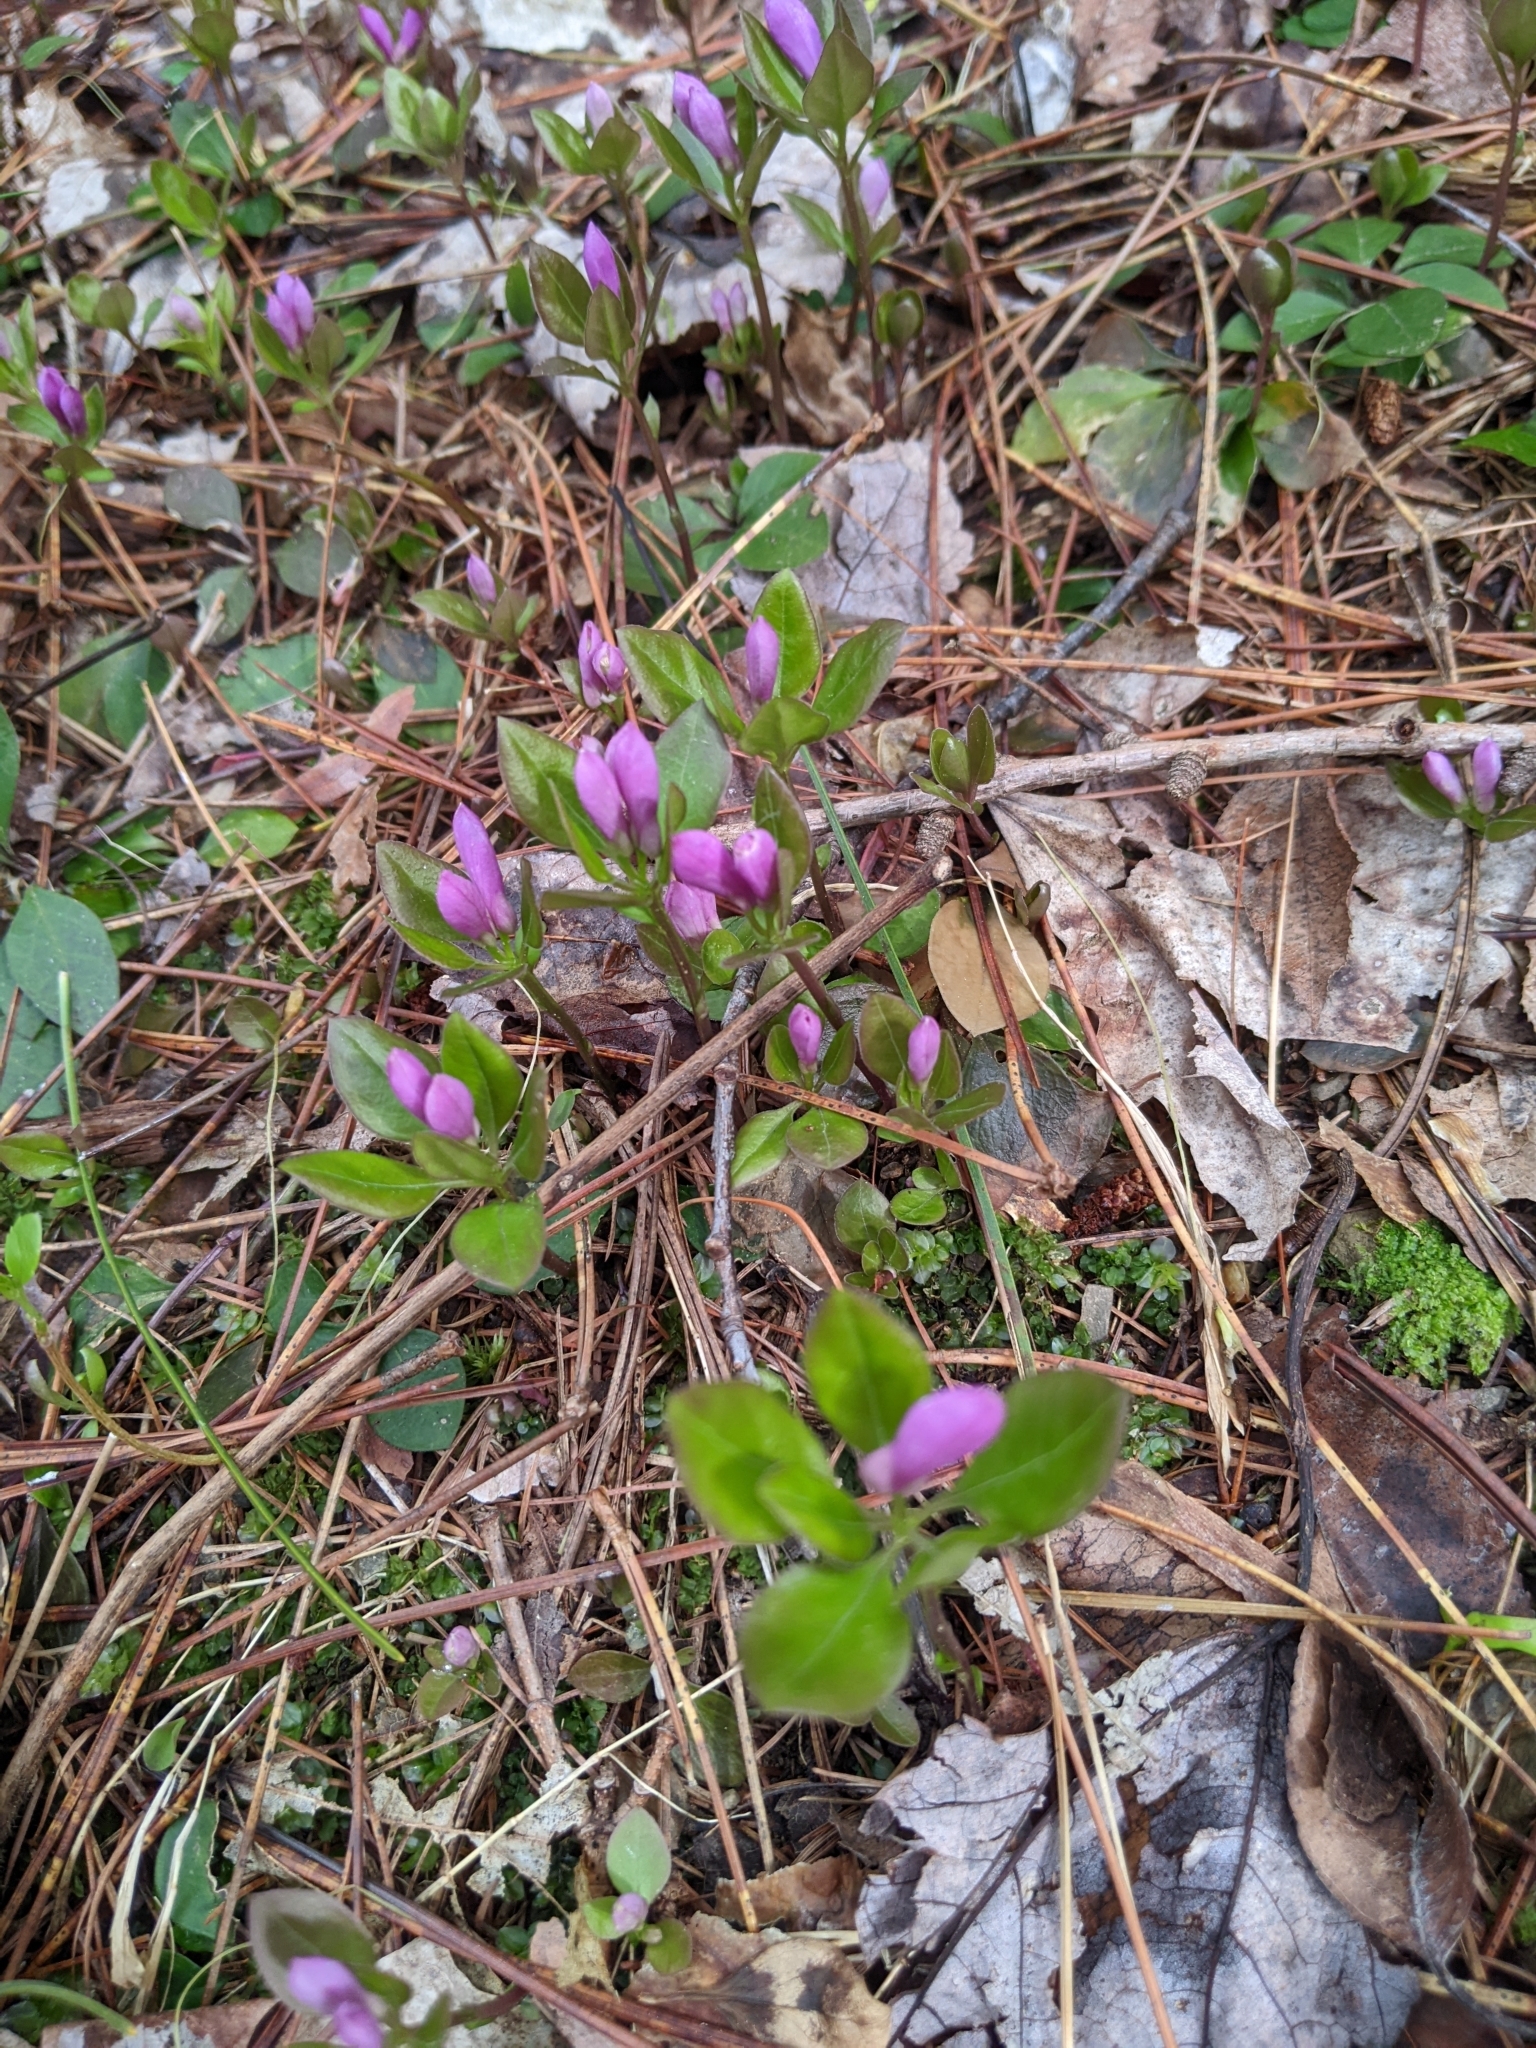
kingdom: Plantae
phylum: Tracheophyta
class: Magnoliopsida
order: Fabales
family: Polygalaceae
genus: Polygaloides
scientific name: Polygaloides paucifolia
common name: Bird-on-the-wing
